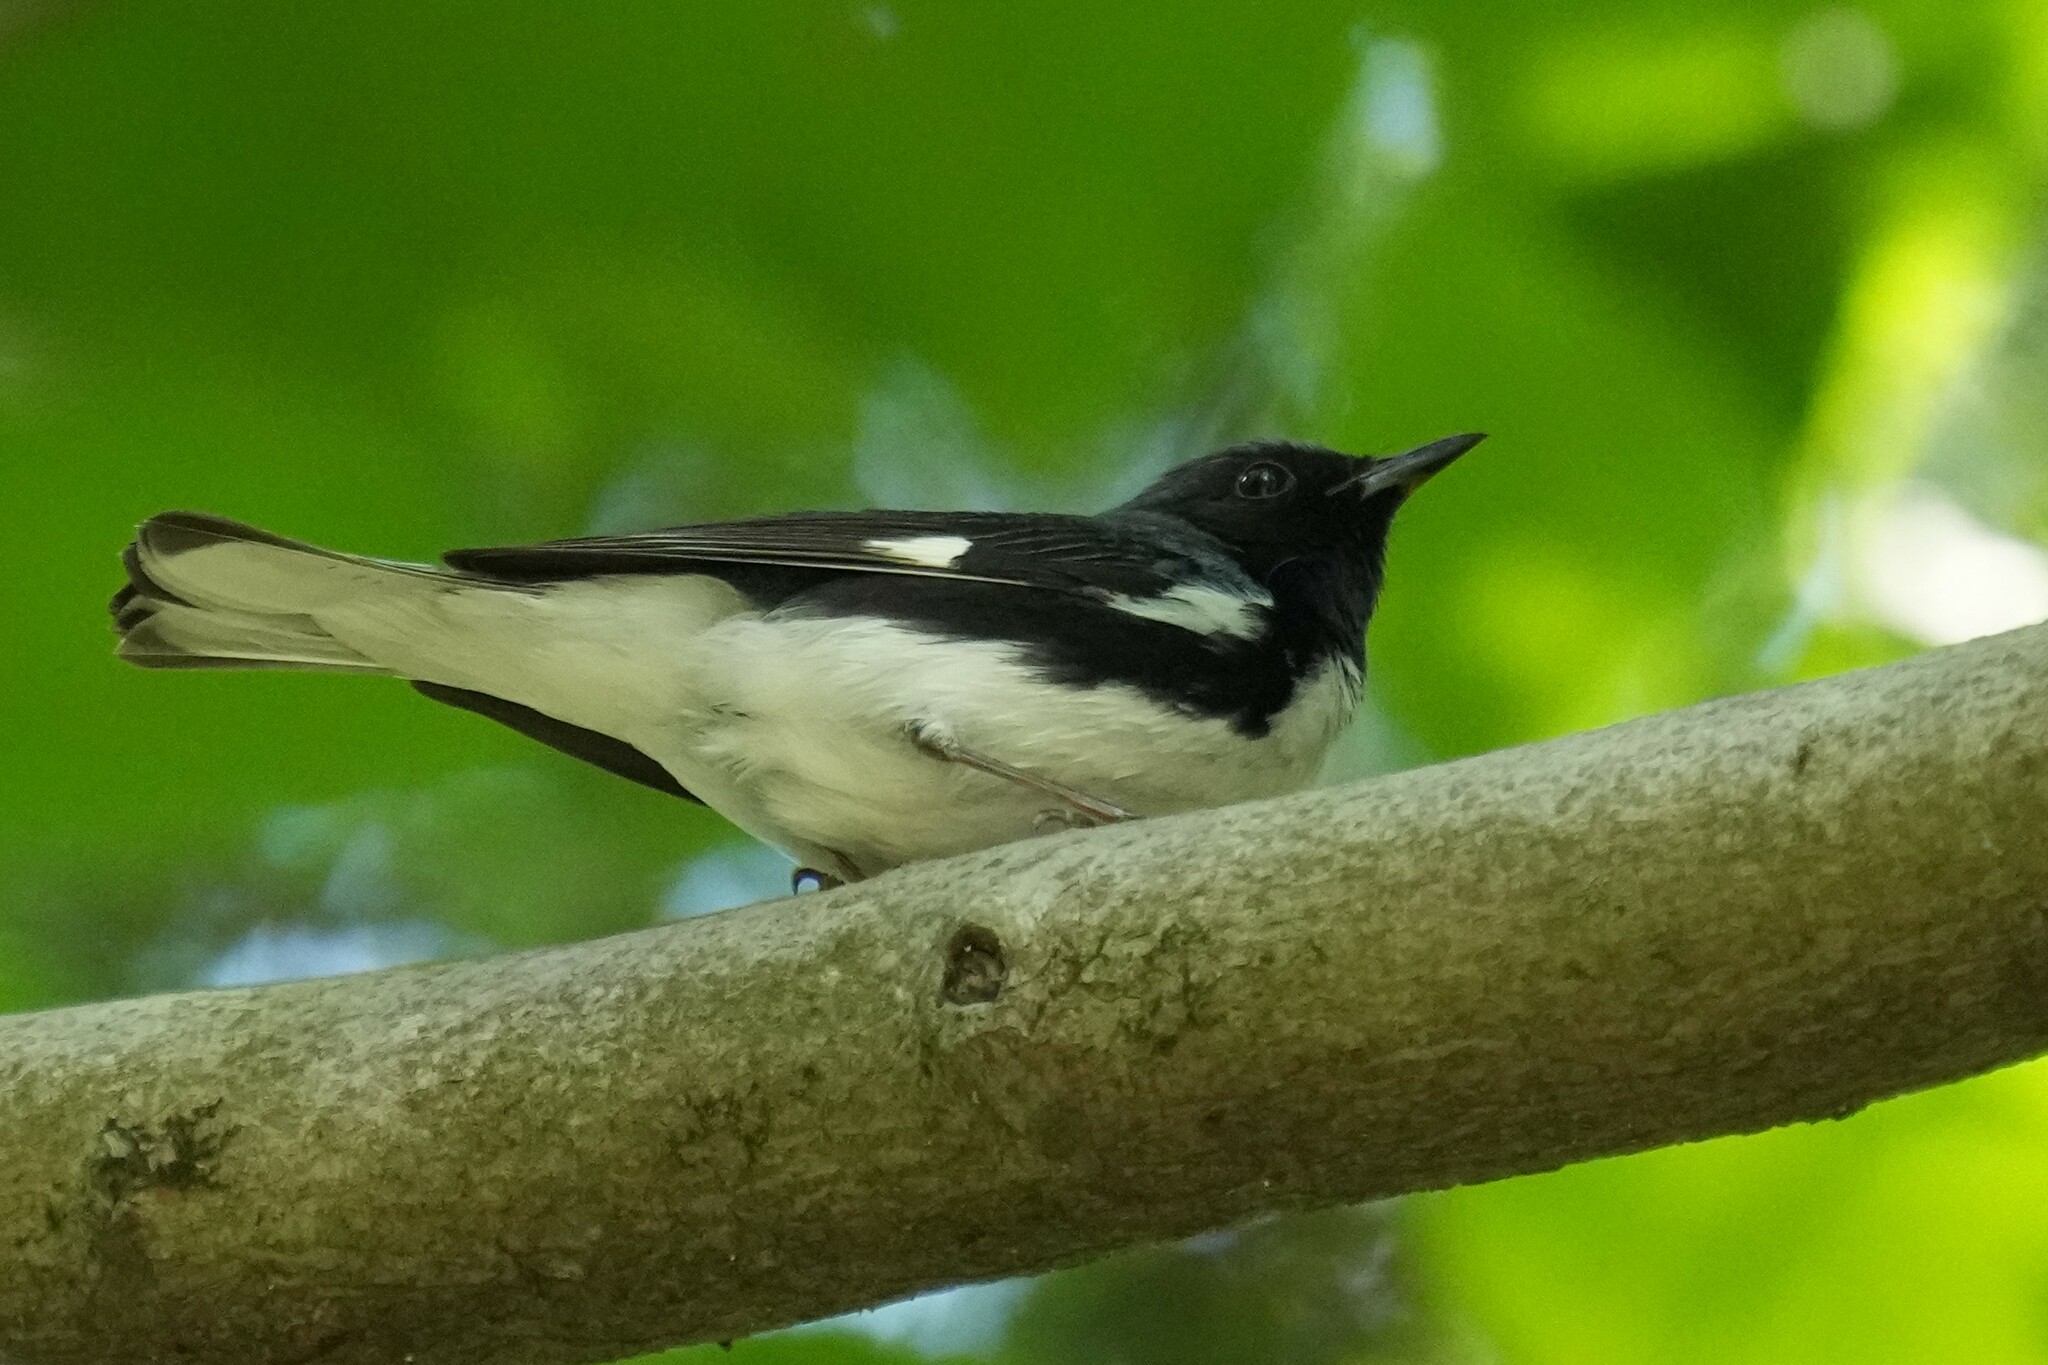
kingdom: Animalia
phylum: Chordata
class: Aves
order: Passeriformes
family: Parulidae
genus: Setophaga
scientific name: Setophaga caerulescens
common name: Black-throated blue warbler
